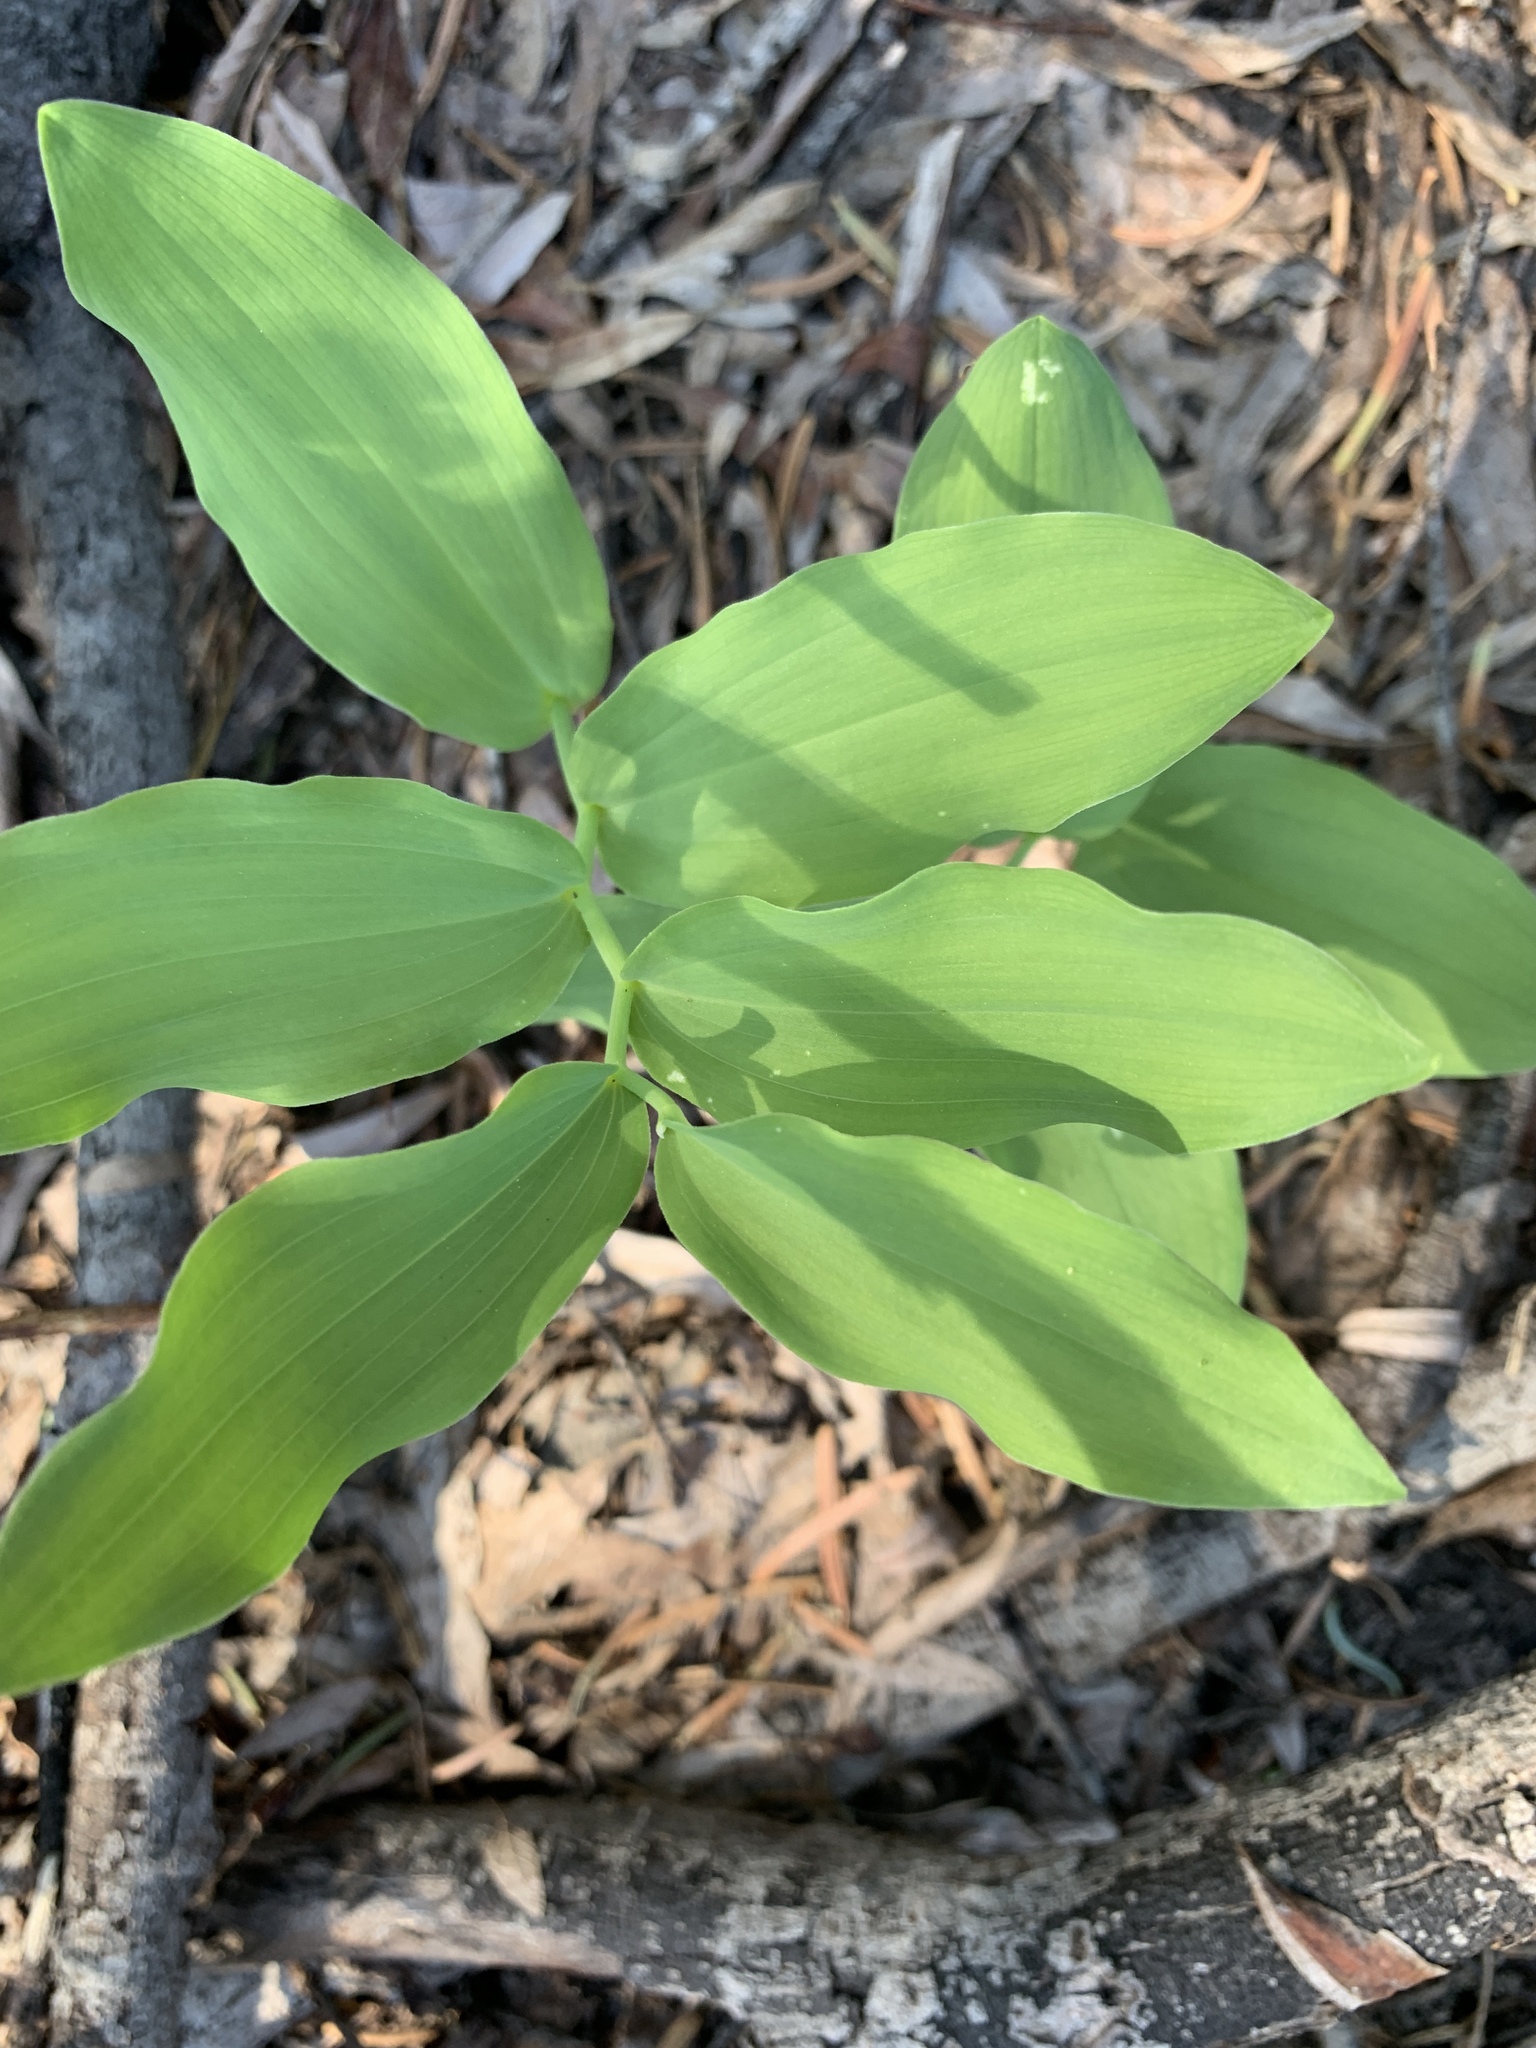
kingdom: Plantae
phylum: Tracheophyta
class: Liliopsida
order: Asparagales
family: Asparagaceae
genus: Maianthemum
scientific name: Maianthemum racemosum
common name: False spikenard
